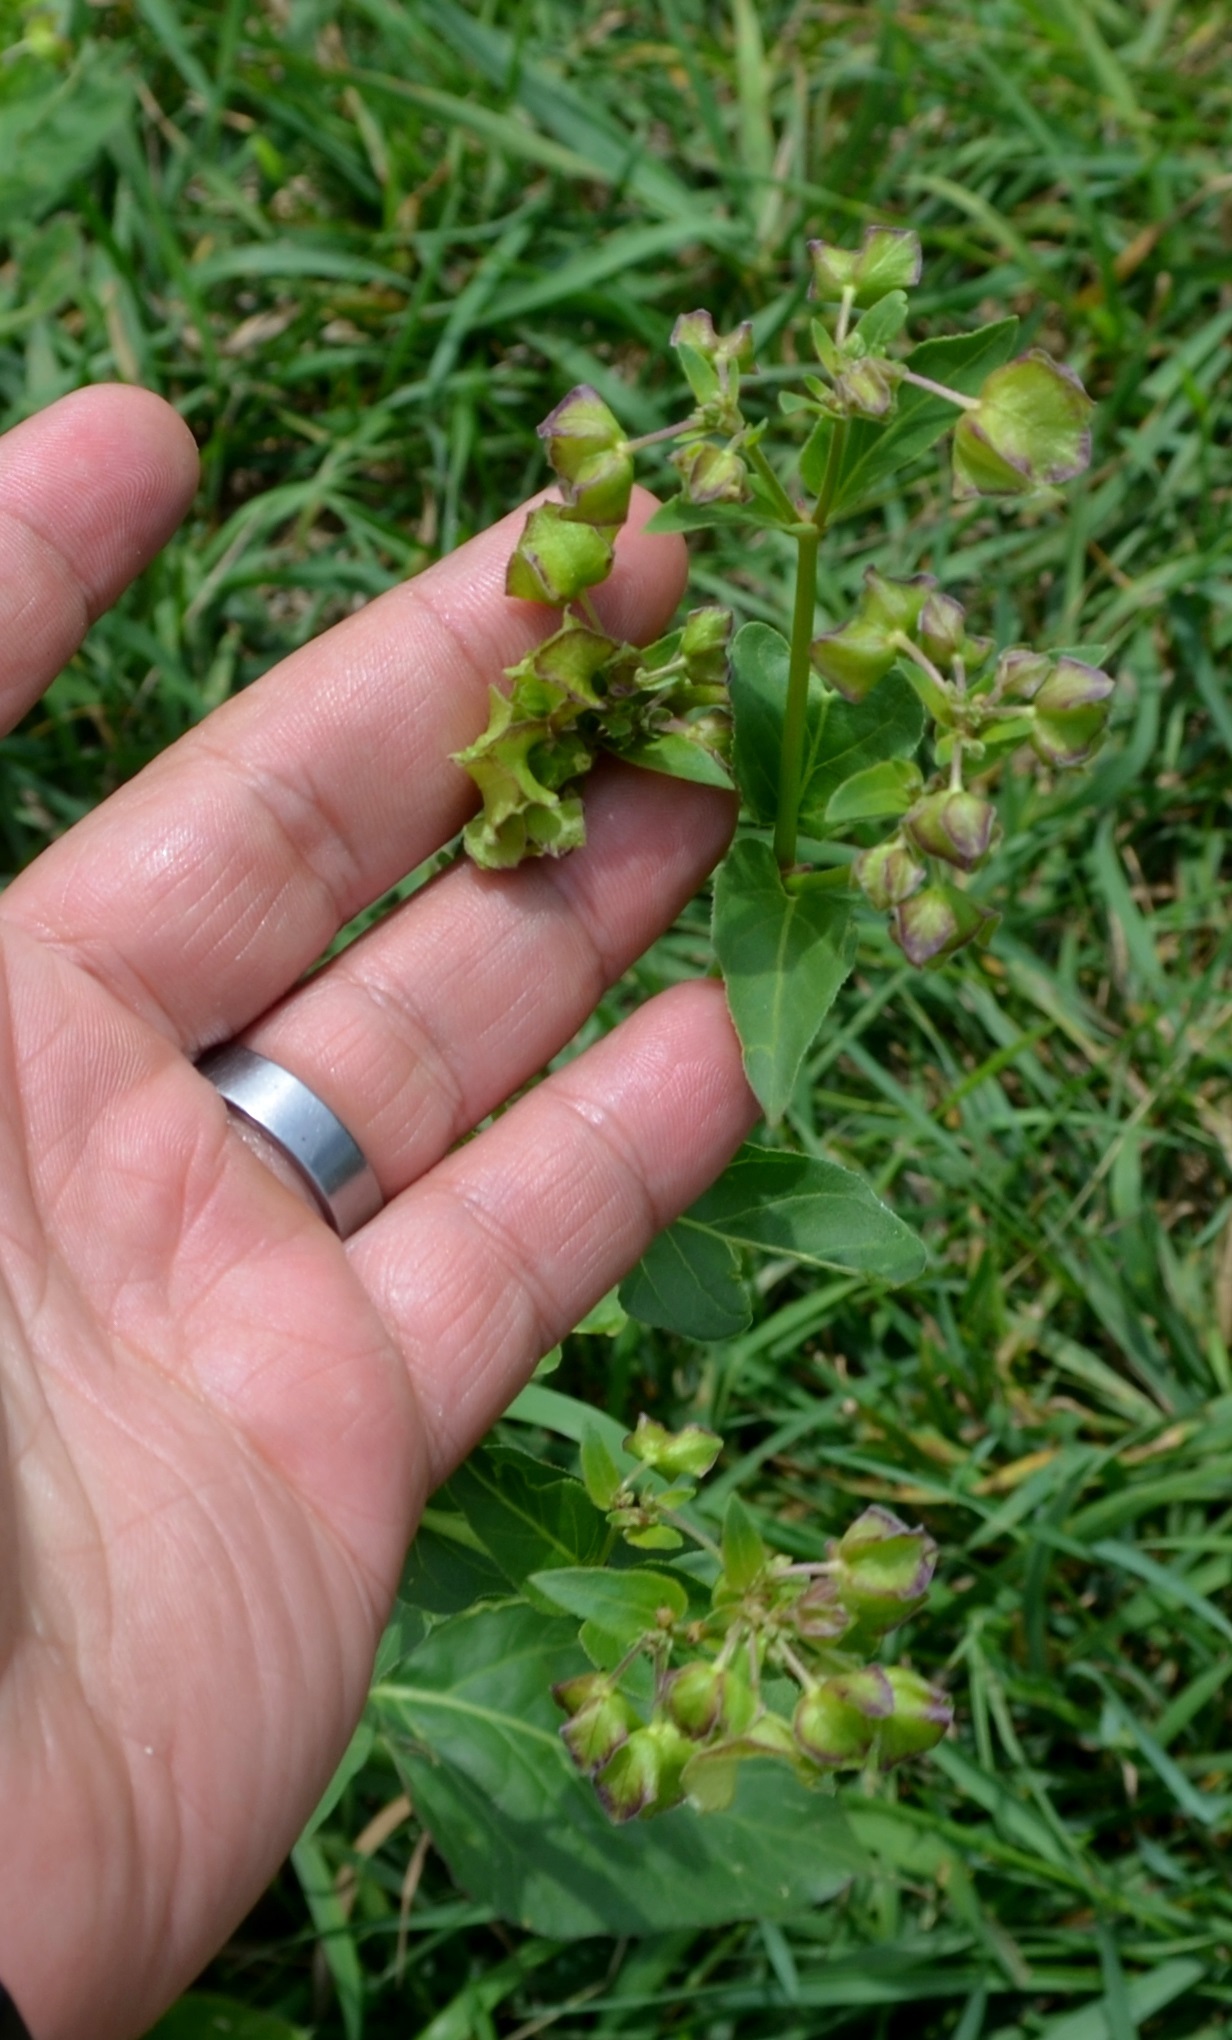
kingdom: Plantae
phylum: Tracheophyta
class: Magnoliopsida
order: Caryophyllales
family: Nyctaginaceae
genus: Mirabilis
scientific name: Mirabilis nyctaginea
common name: Umbrella wort
